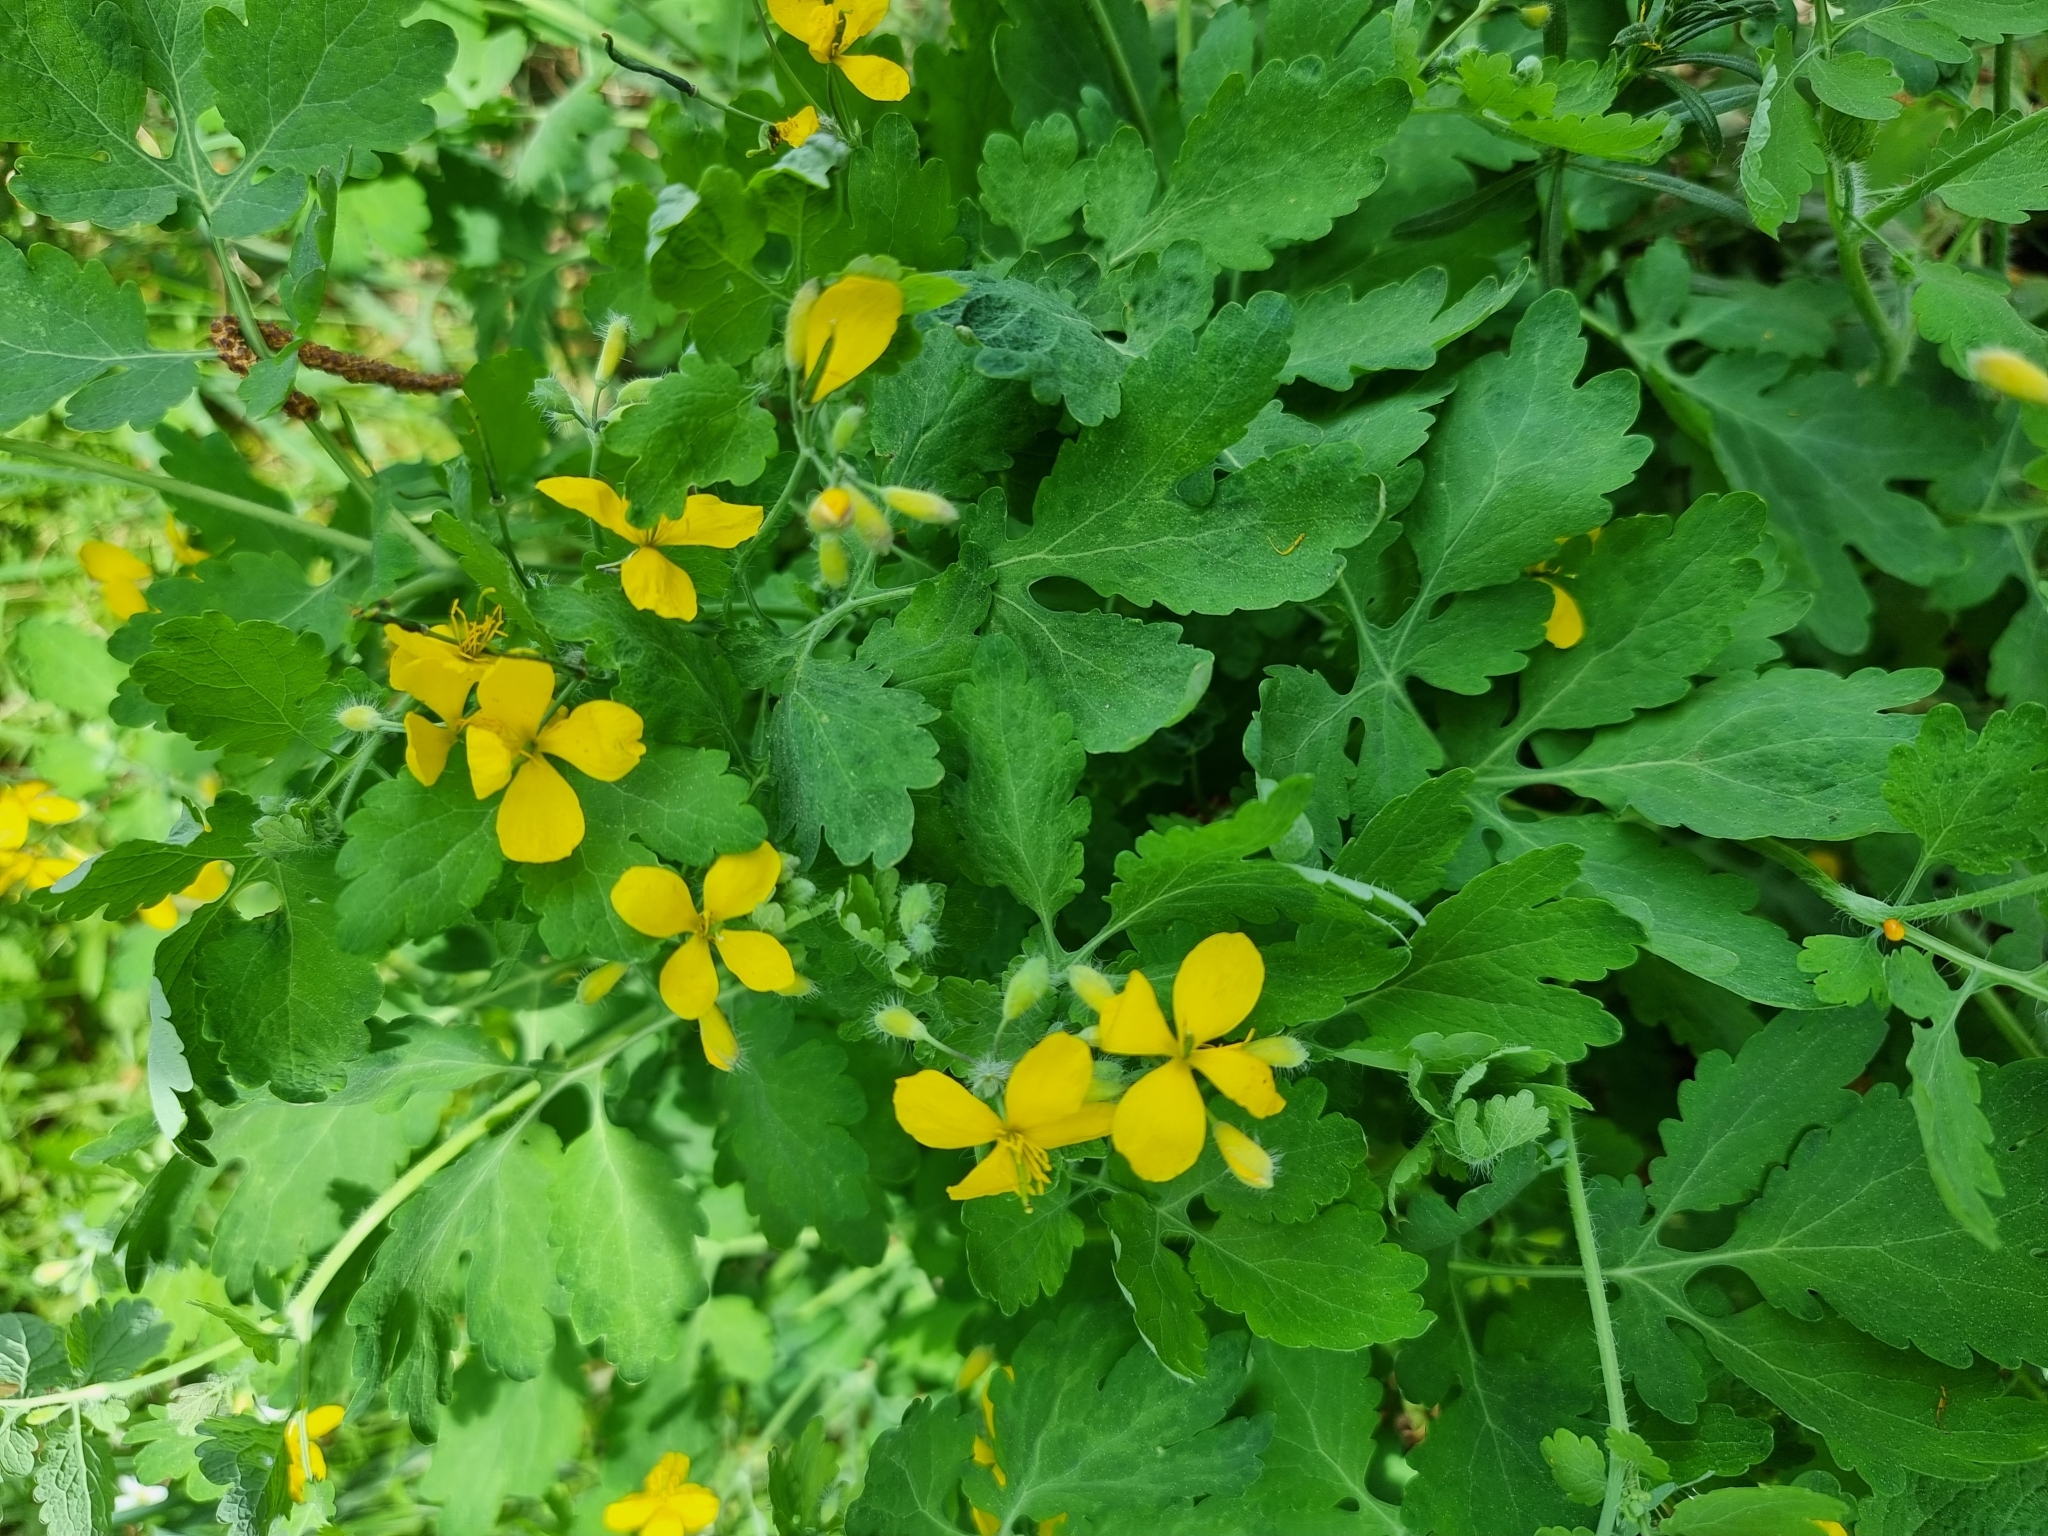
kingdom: Plantae
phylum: Tracheophyta
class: Magnoliopsida
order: Ranunculales
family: Papaveraceae
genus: Chelidonium
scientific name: Chelidonium majus
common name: Greater celandine
